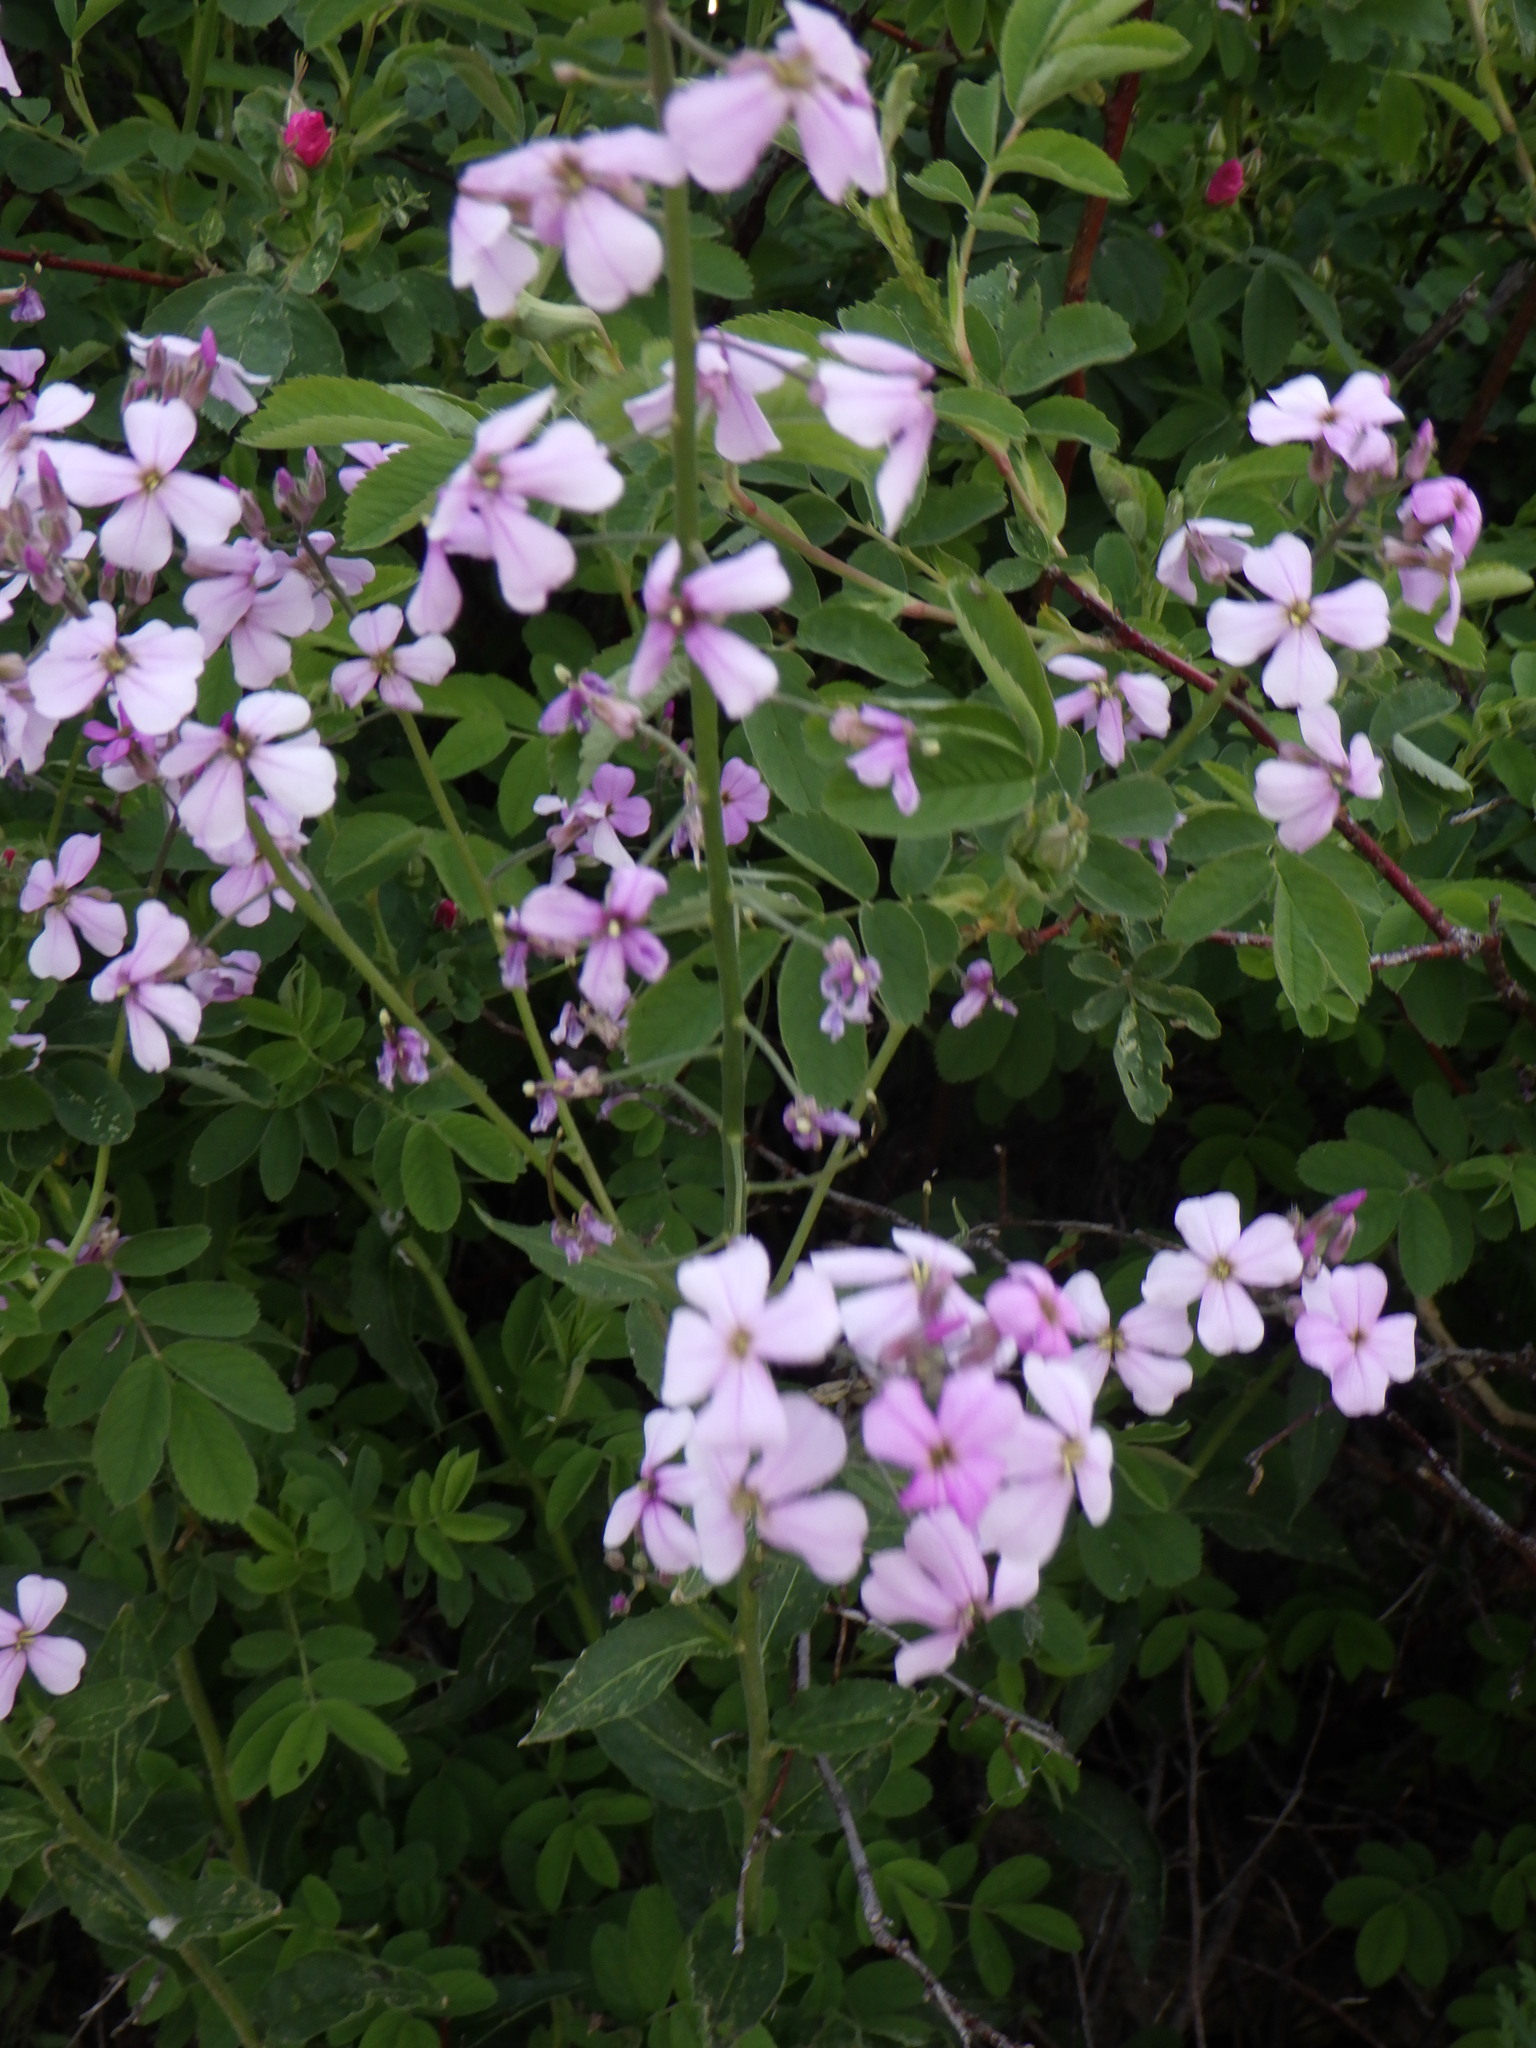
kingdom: Plantae
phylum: Tracheophyta
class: Magnoliopsida
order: Brassicales
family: Brassicaceae
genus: Hesperis
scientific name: Hesperis matronalis
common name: Dame's-violet
